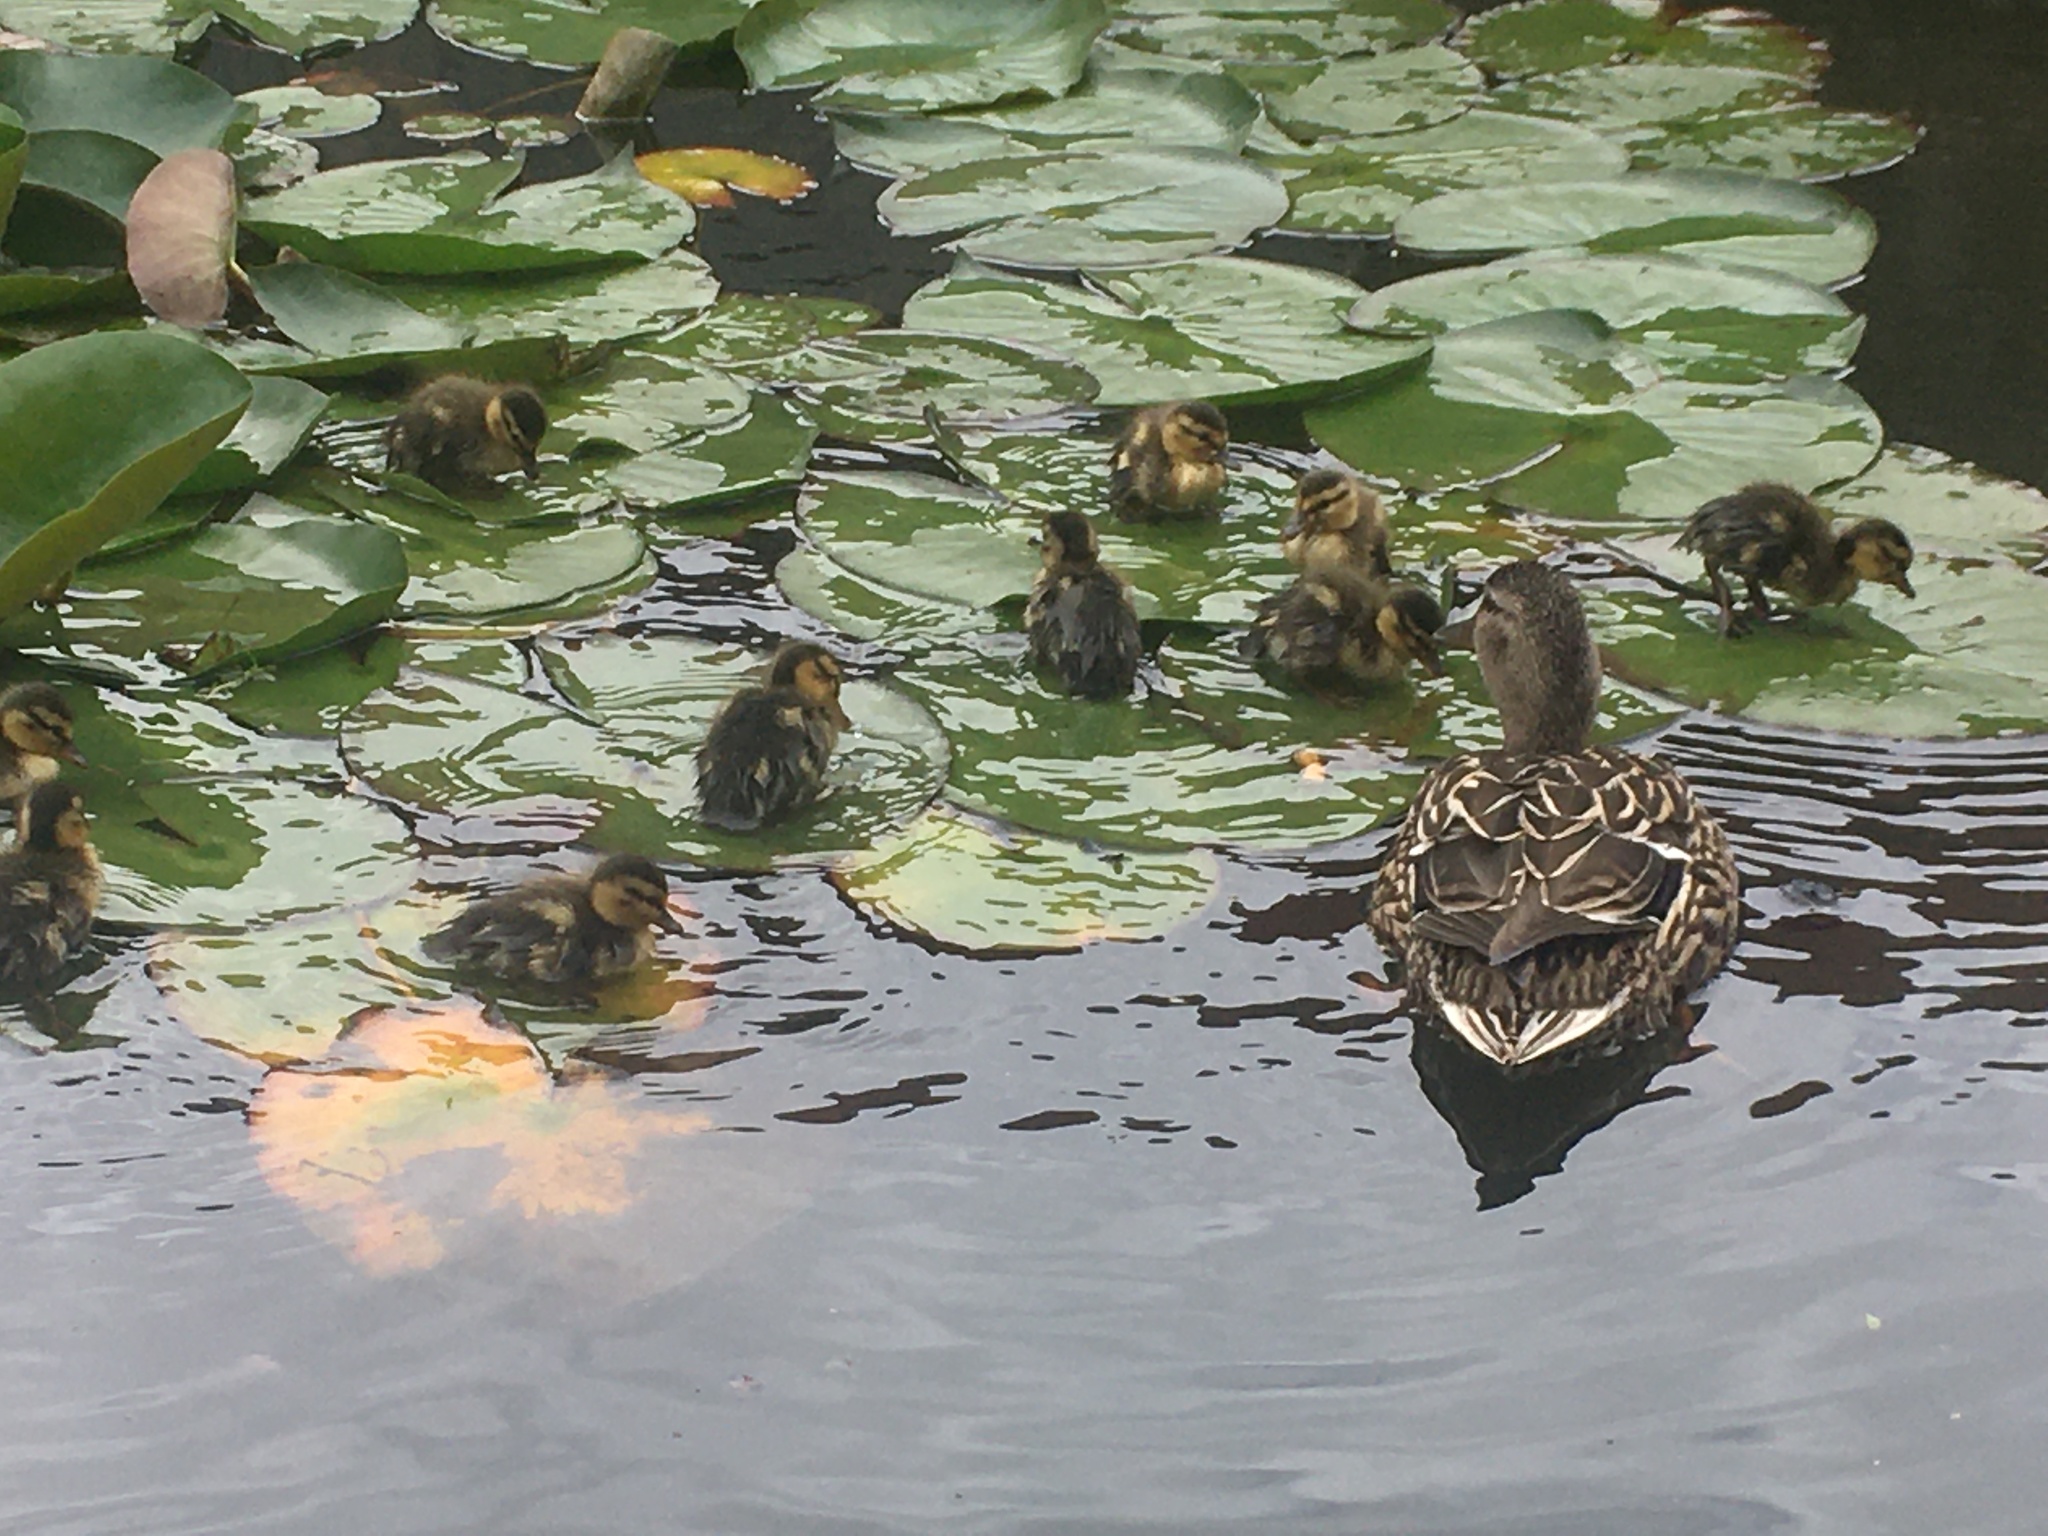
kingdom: Animalia
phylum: Chordata
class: Aves
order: Anseriformes
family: Anatidae
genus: Anas
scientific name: Anas platyrhynchos
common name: Mallard
